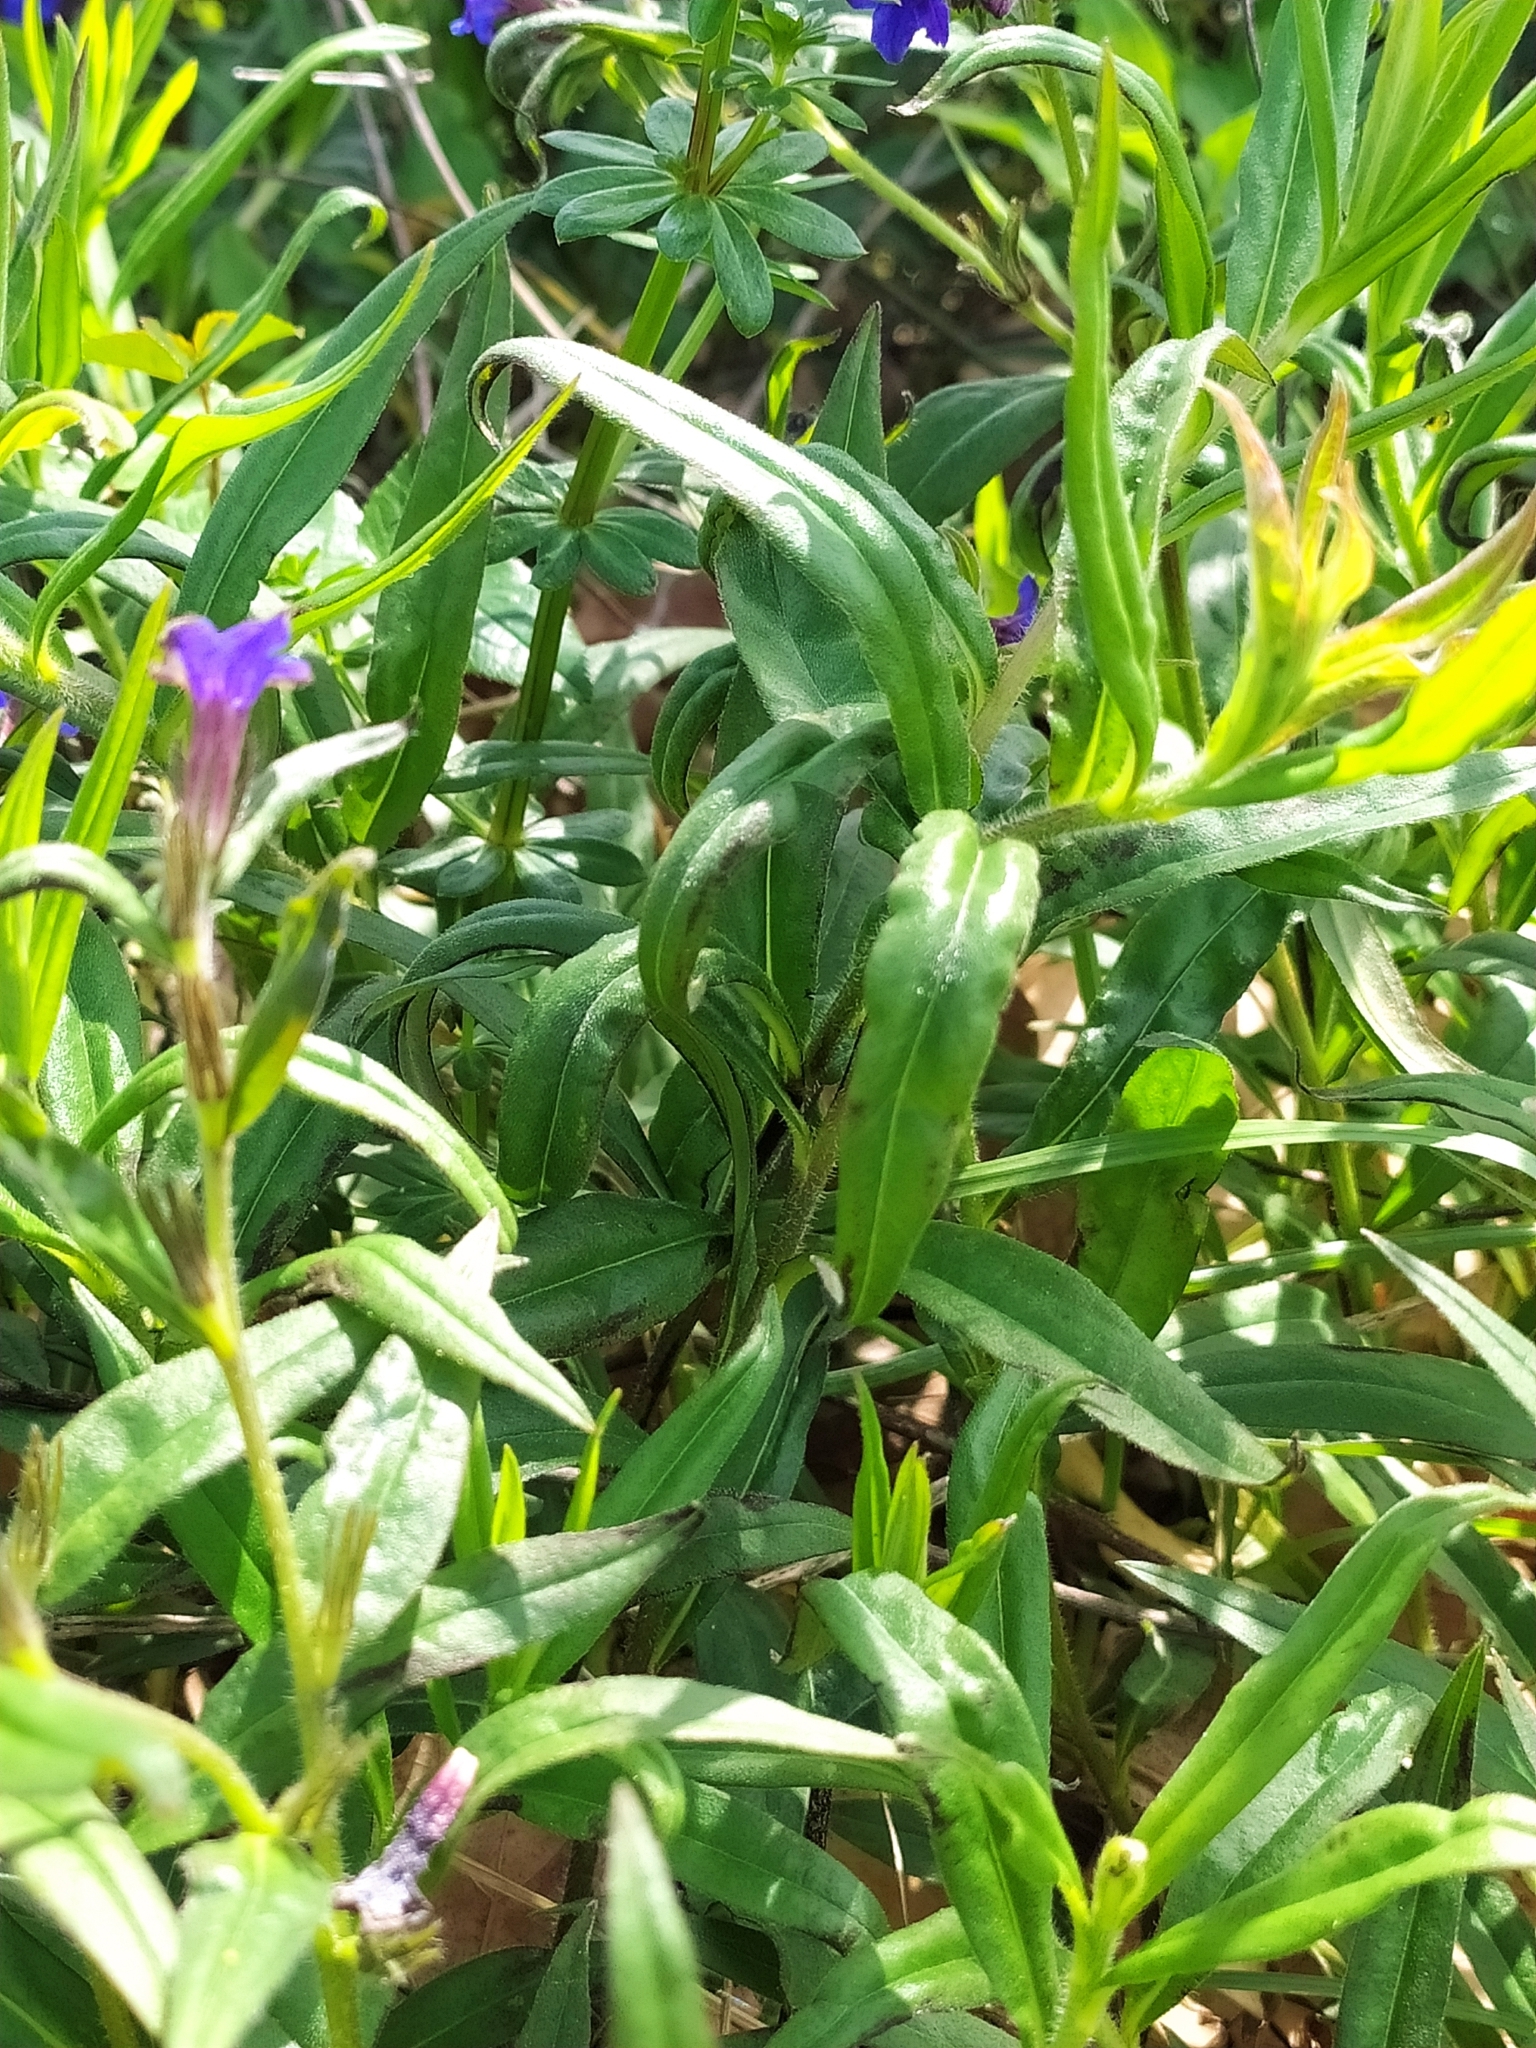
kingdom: Plantae
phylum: Tracheophyta
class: Magnoliopsida
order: Boraginales
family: Boraginaceae
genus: Aegonychon
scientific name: Aegonychon purpurocaeruleum
